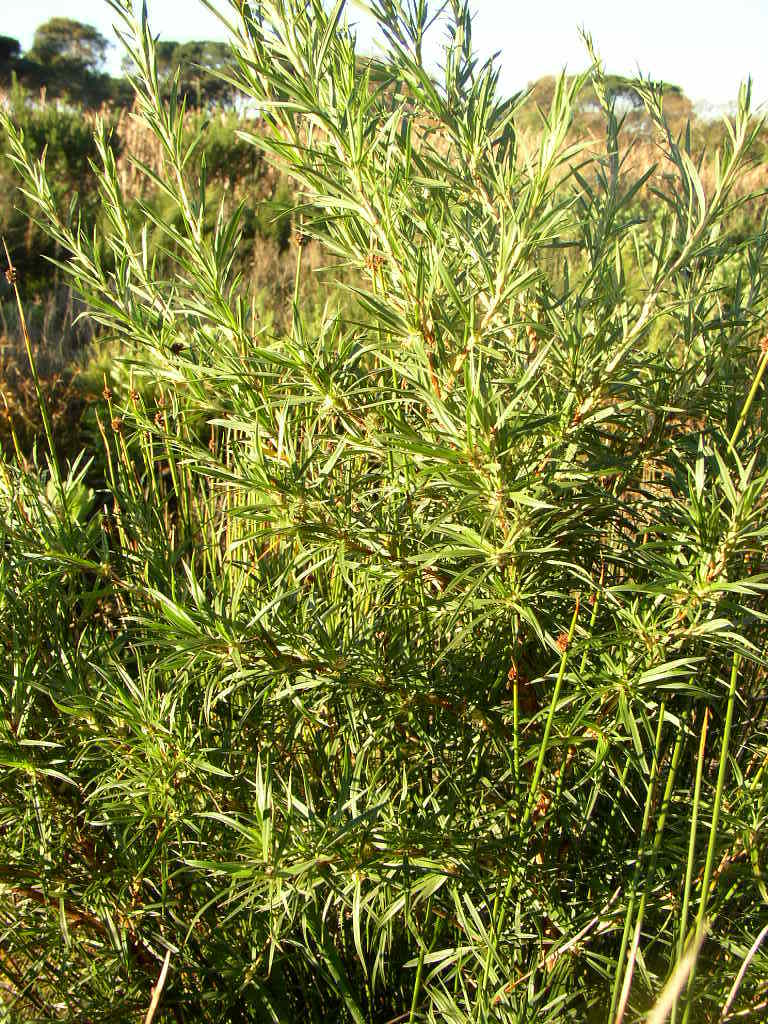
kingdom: Plantae
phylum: Tracheophyta
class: Magnoliopsida
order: Rosales
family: Rosaceae
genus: Cliffortia
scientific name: Cliffortia longifolia
